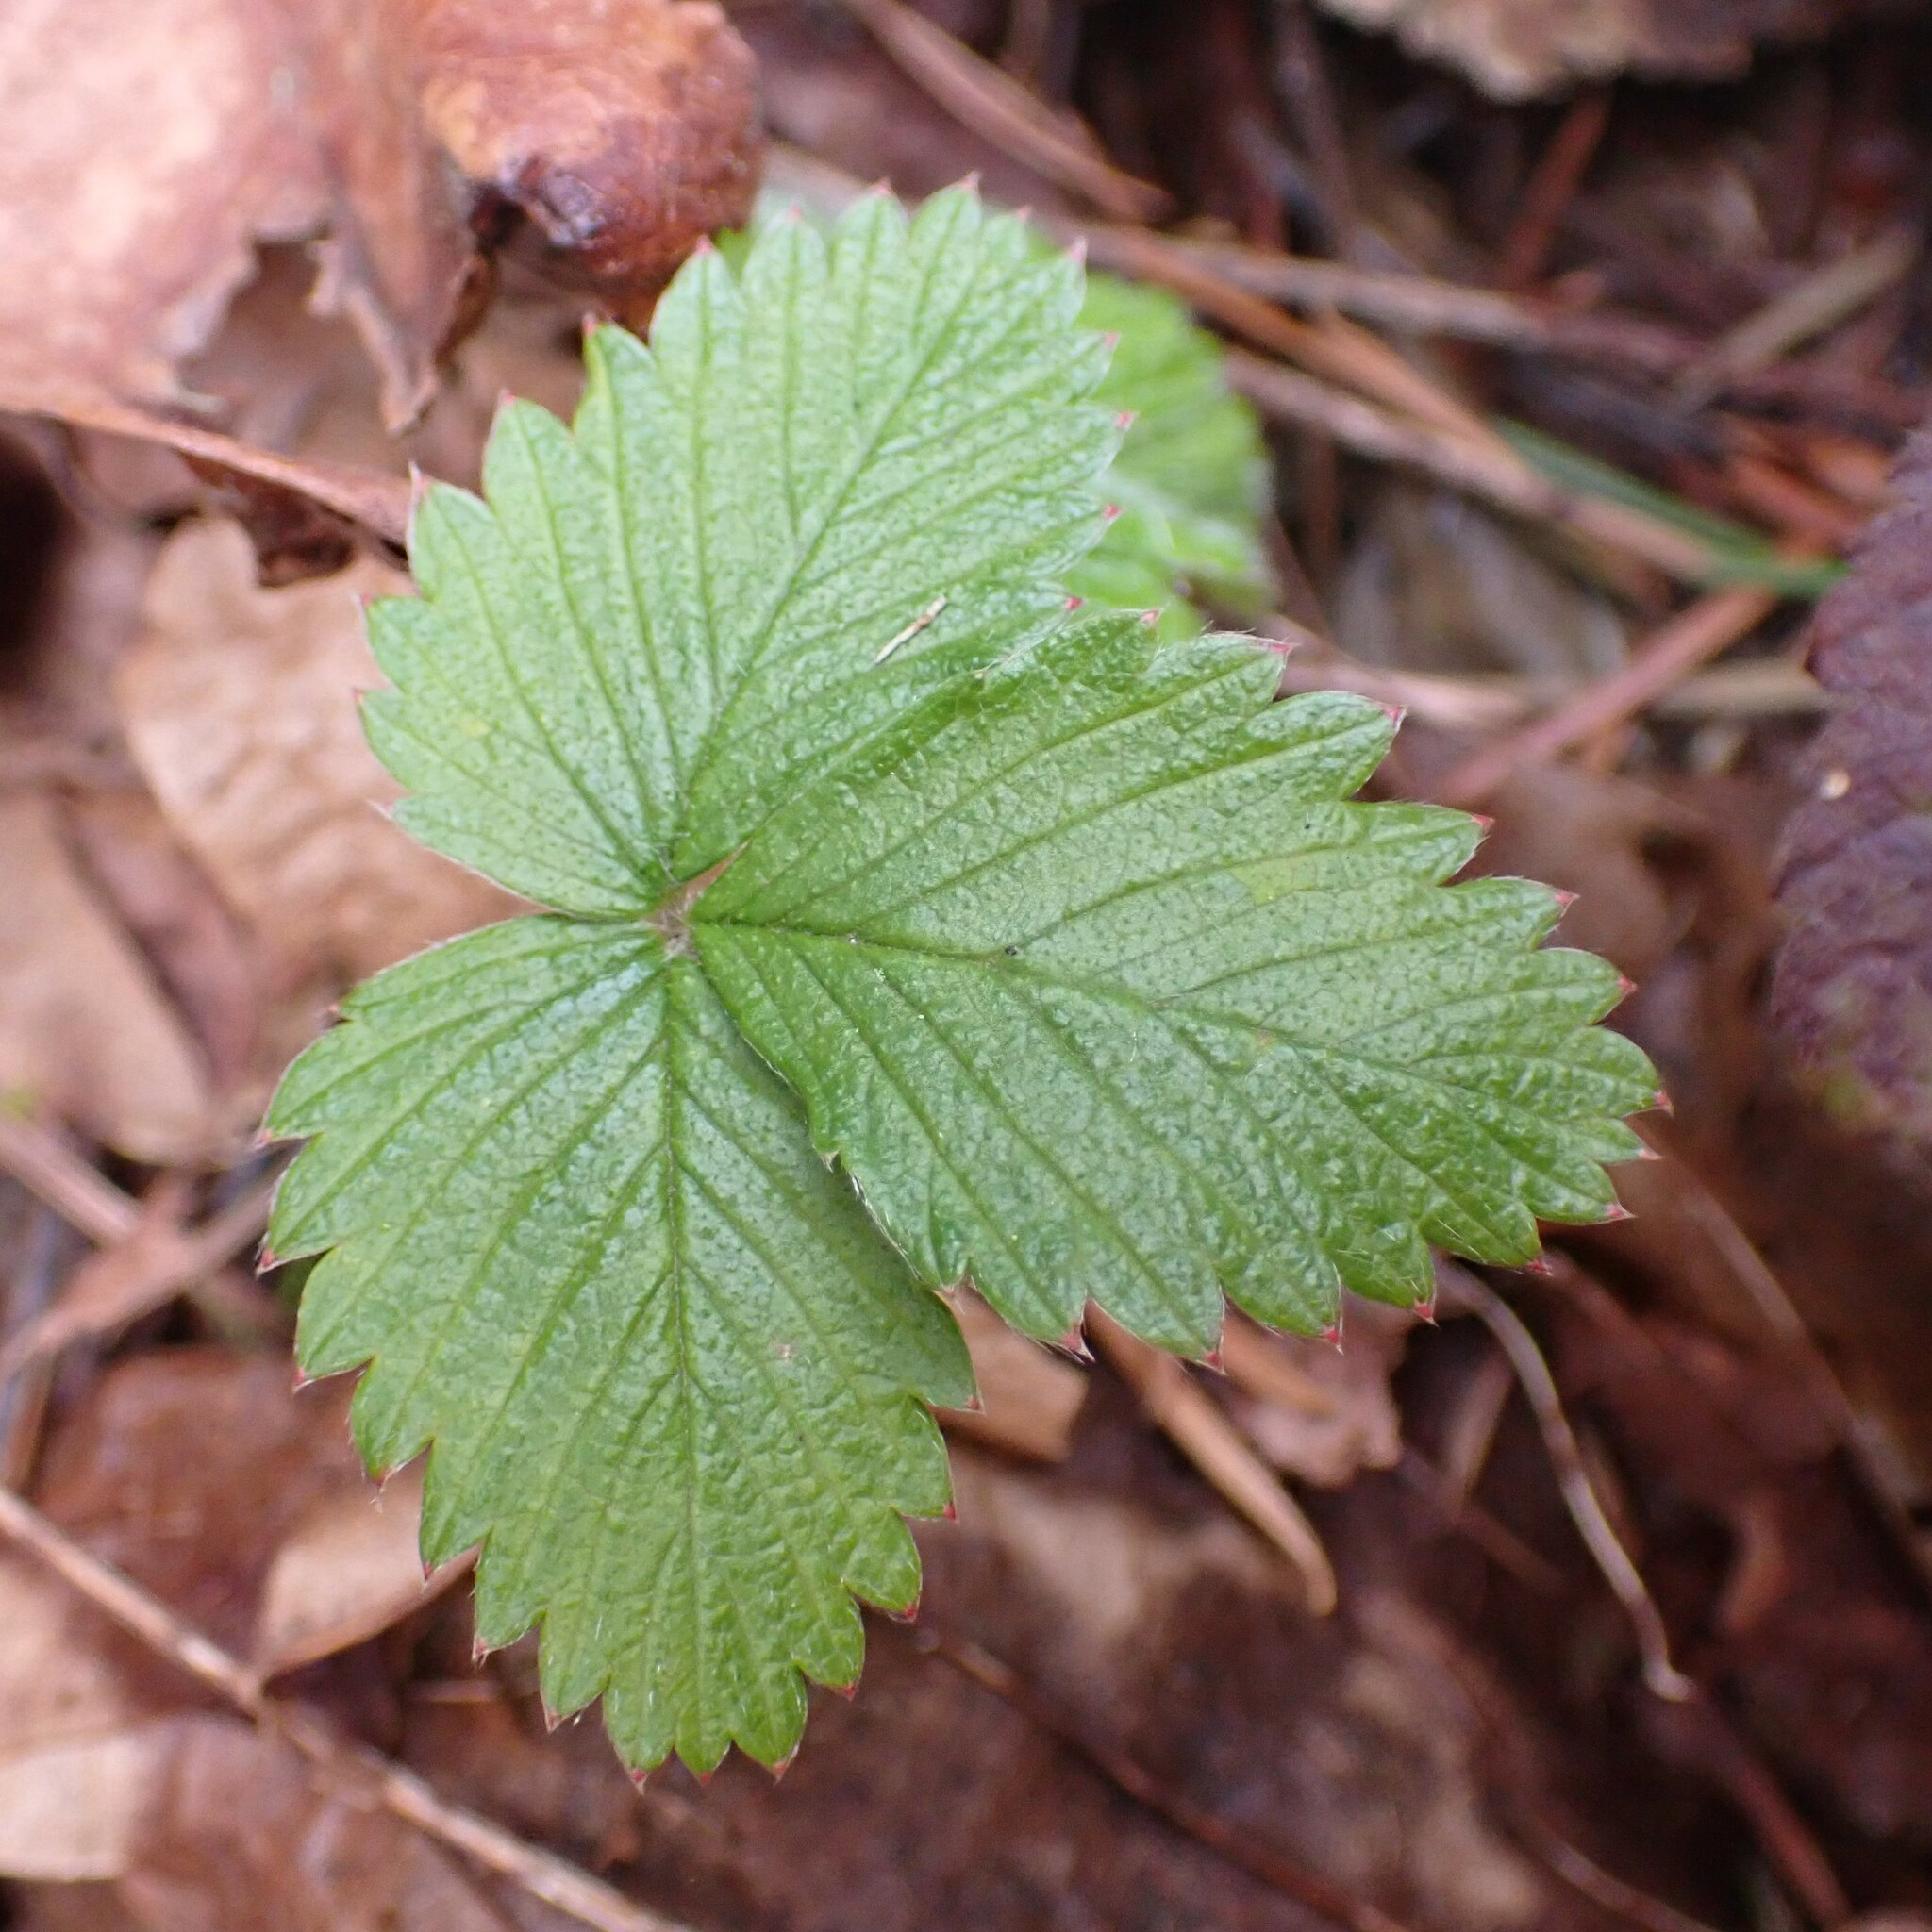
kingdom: Plantae
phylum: Tracheophyta
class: Magnoliopsida
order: Rosales
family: Rosaceae
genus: Fragaria
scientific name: Fragaria vesca
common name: Wild strawberry
